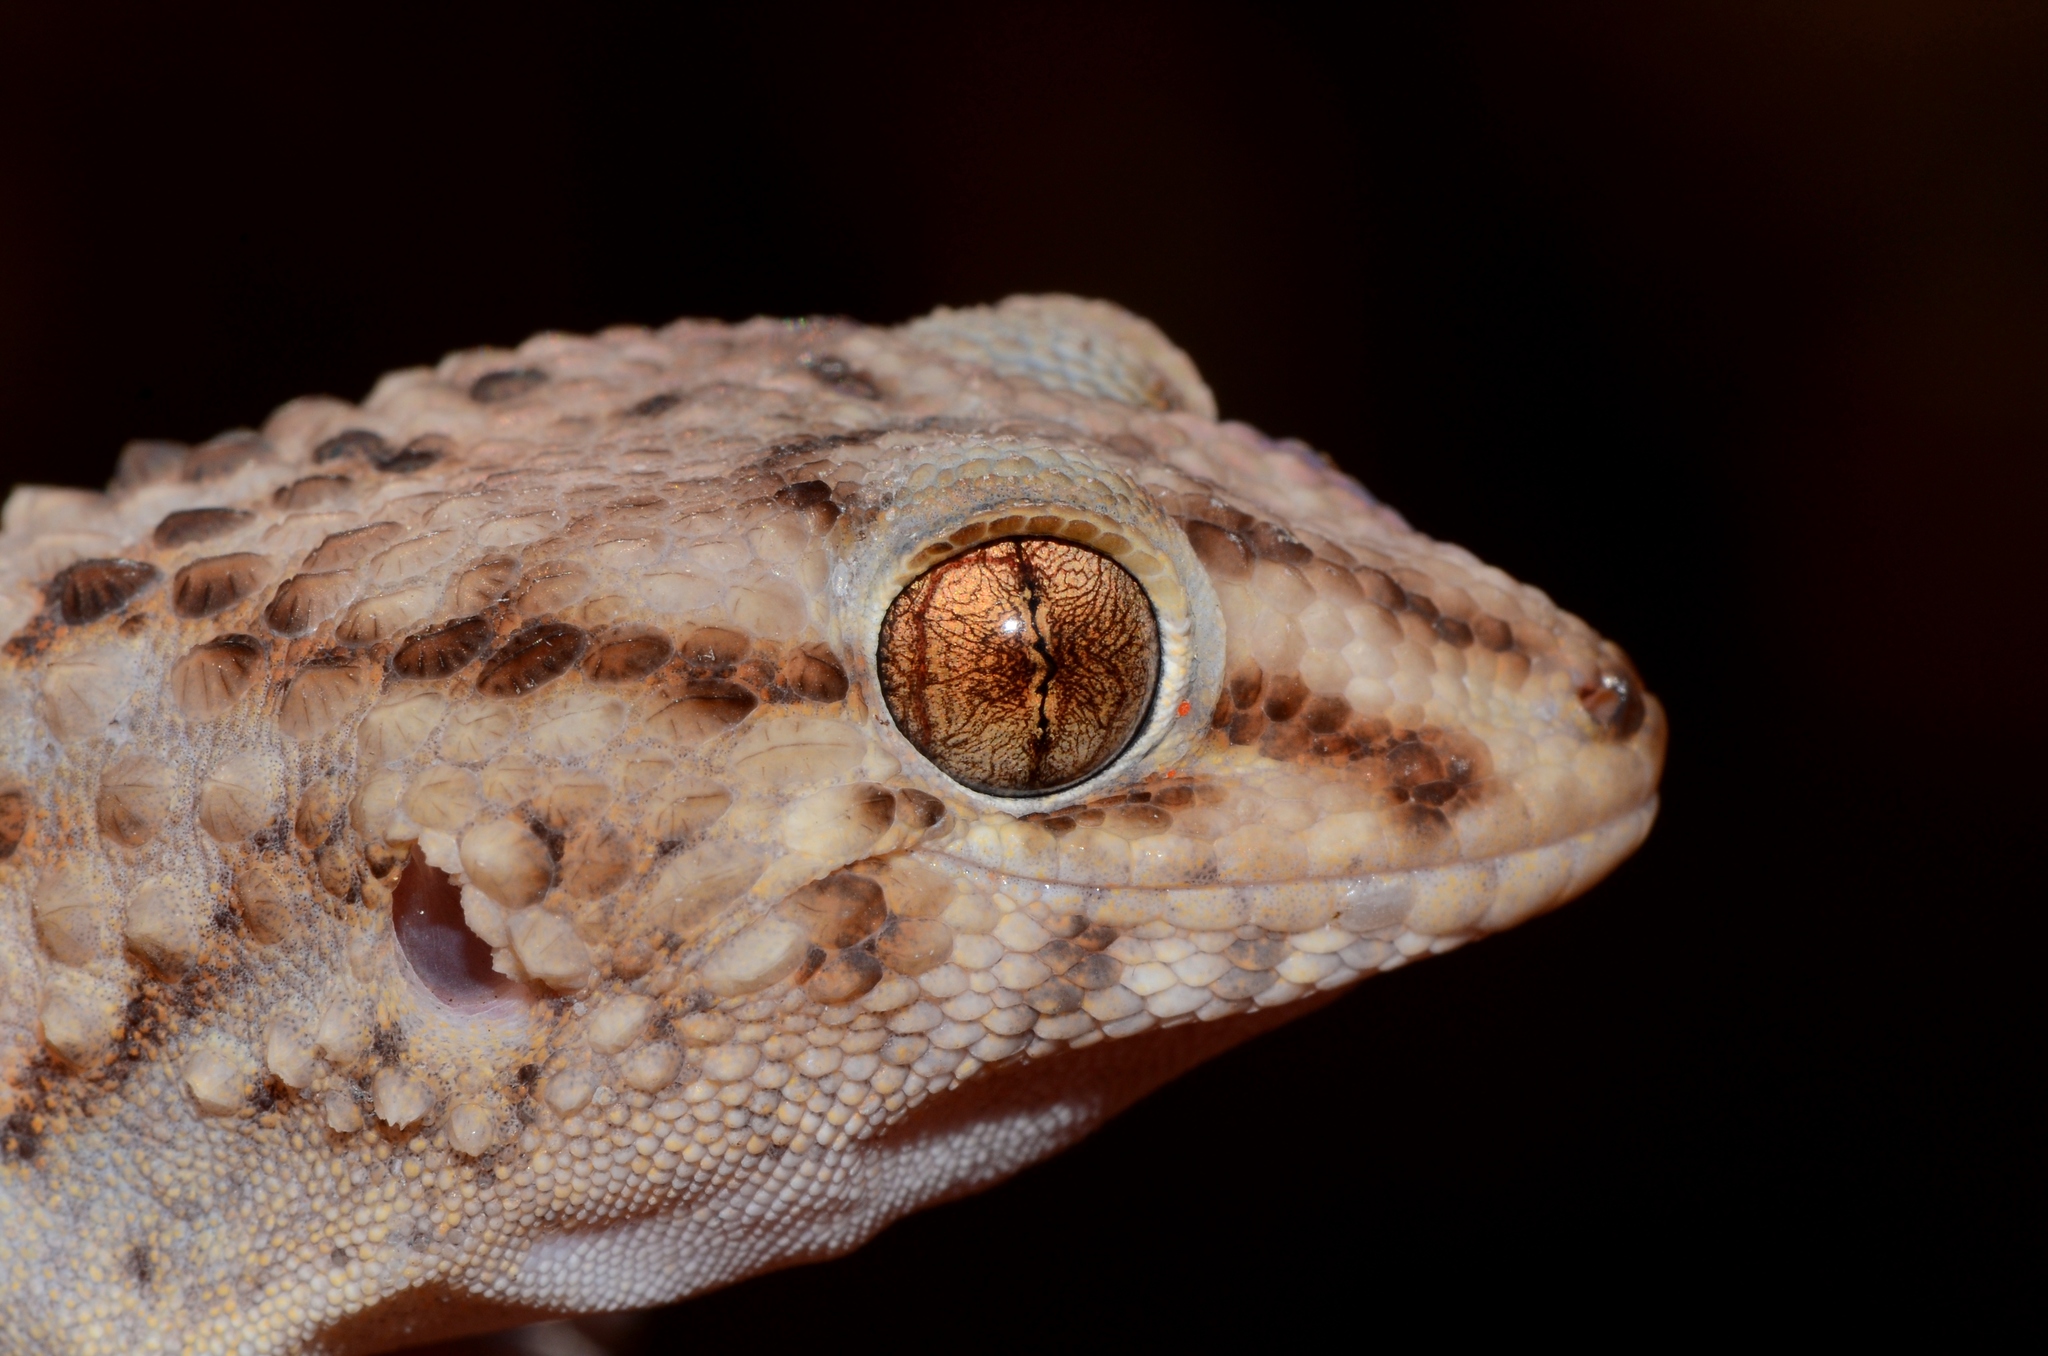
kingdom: Animalia
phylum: Chordata
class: Squamata
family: Gekkonidae
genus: Chondrodactylus
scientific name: Chondrodactylus turneri
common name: Turner’s gecko
